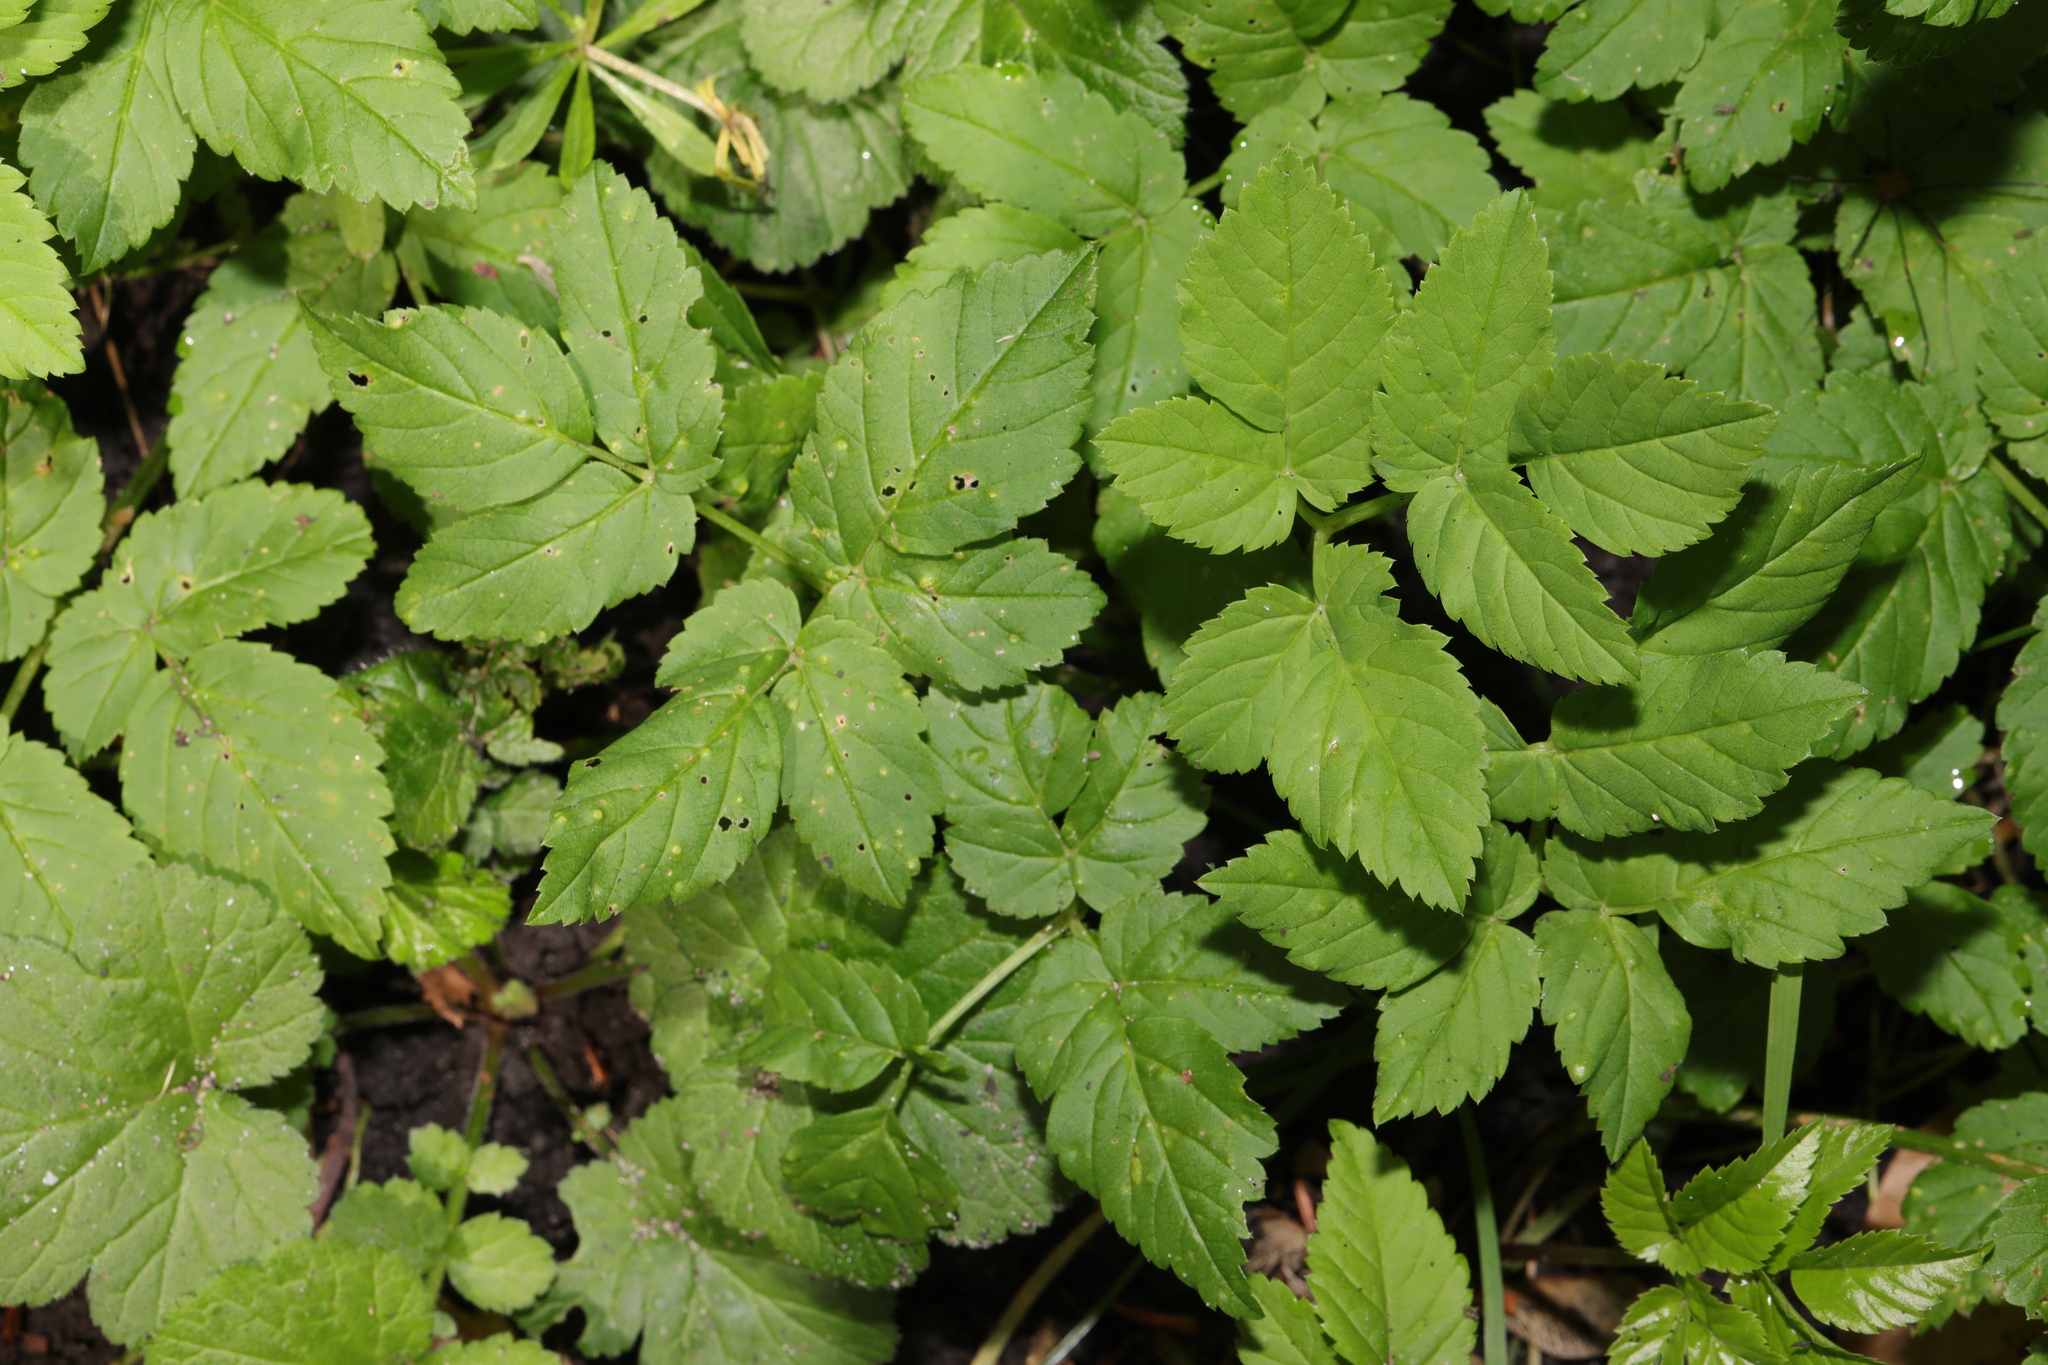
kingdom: Plantae
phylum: Tracheophyta
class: Magnoliopsida
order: Apiales
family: Apiaceae
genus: Aegopodium
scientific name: Aegopodium podagraria
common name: Ground-elder
